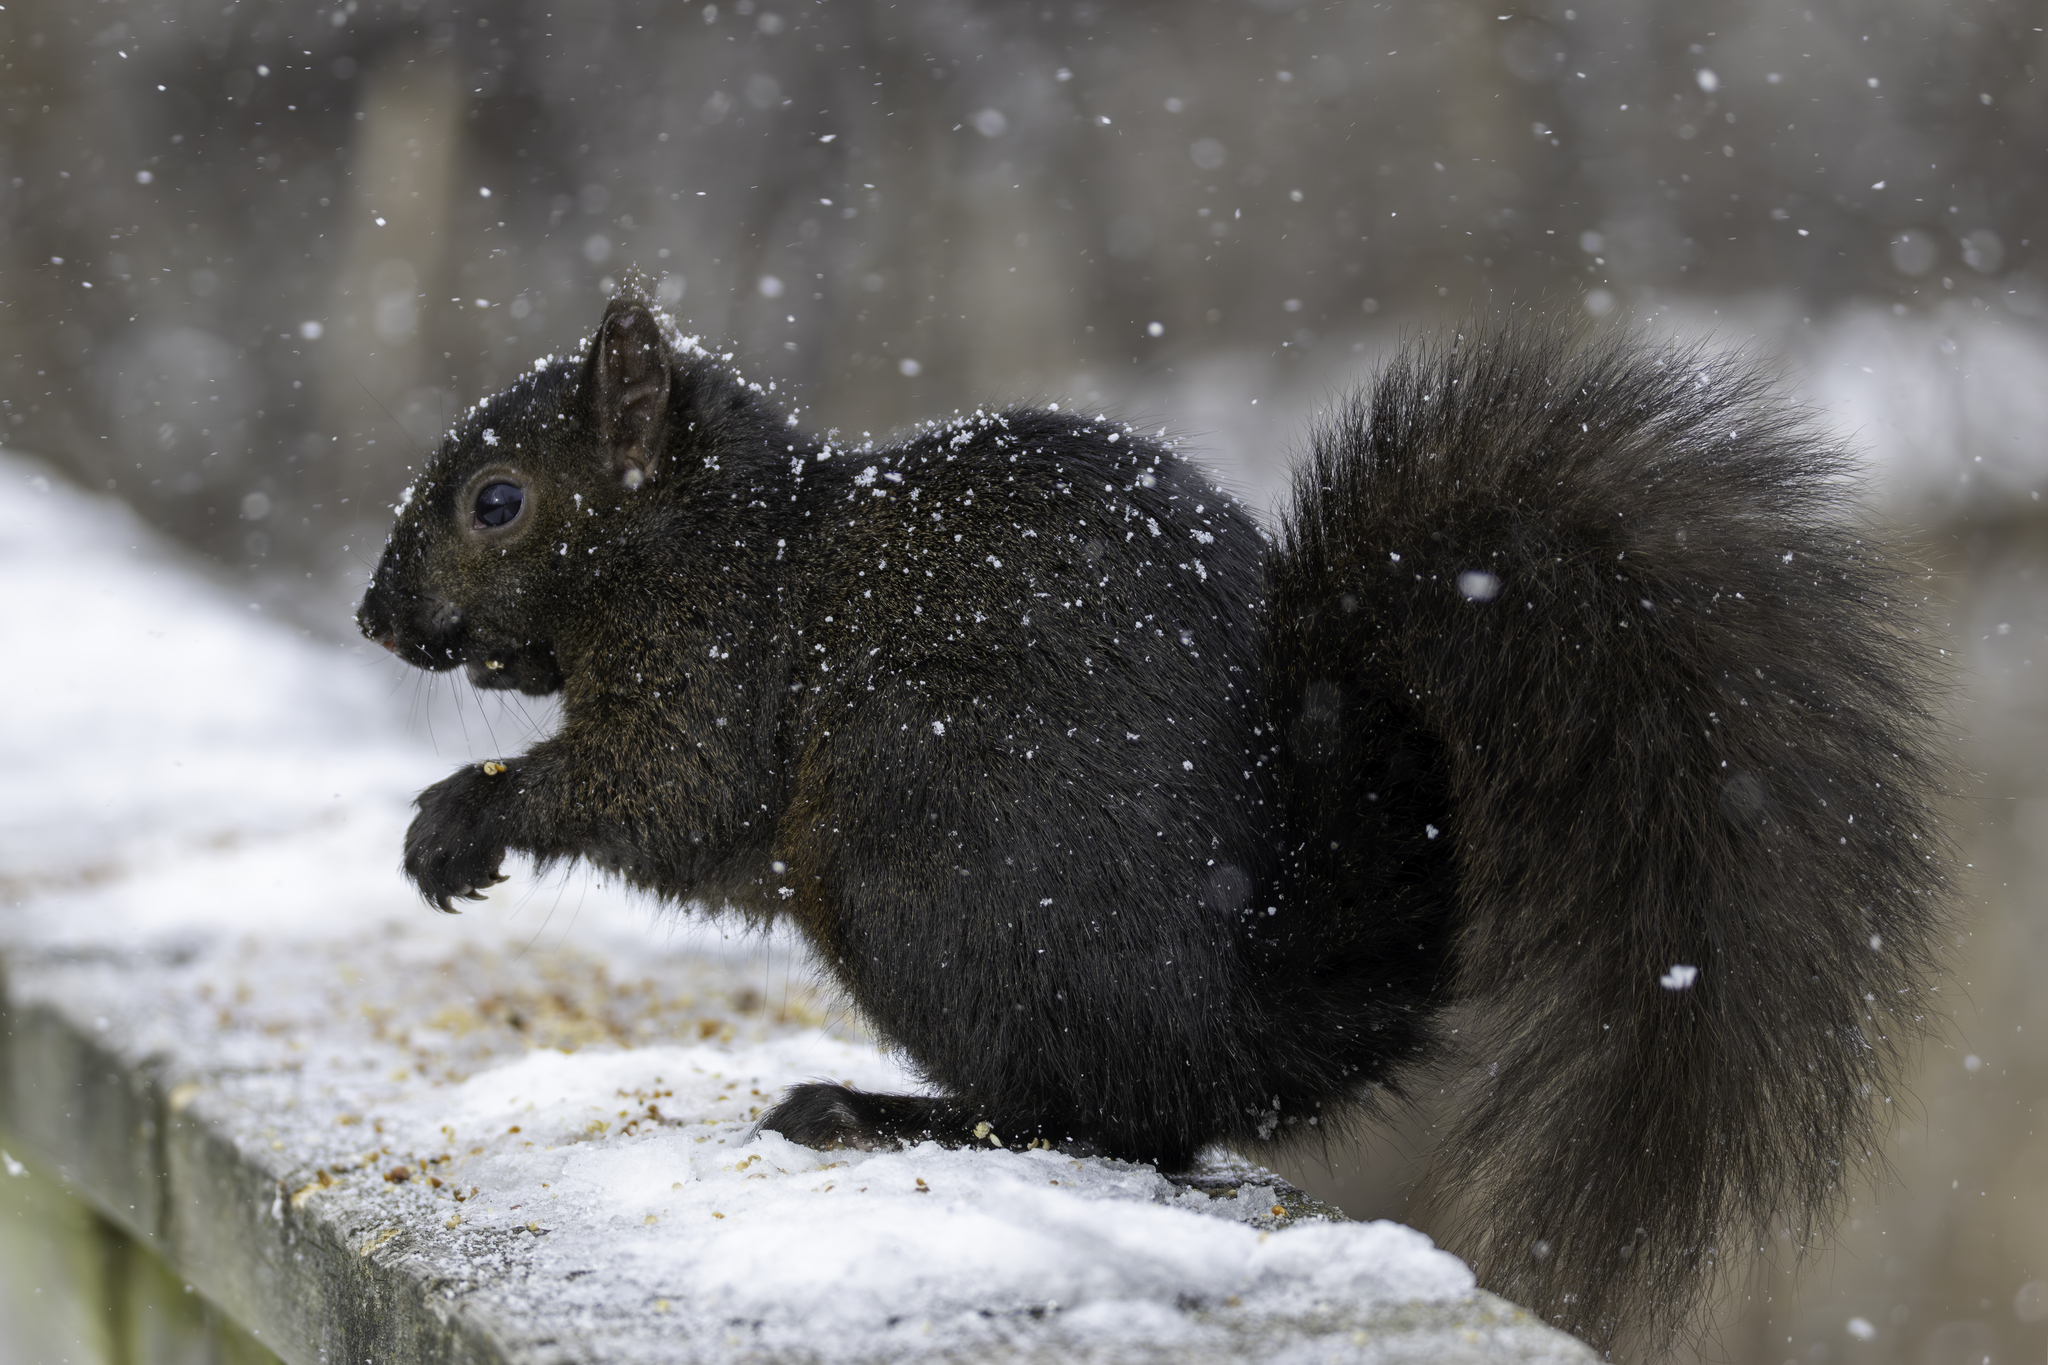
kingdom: Animalia
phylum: Chordata
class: Mammalia
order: Rodentia
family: Sciuridae
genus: Sciurus
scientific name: Sciurus carolinensis
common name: Eastern gray squirrel
